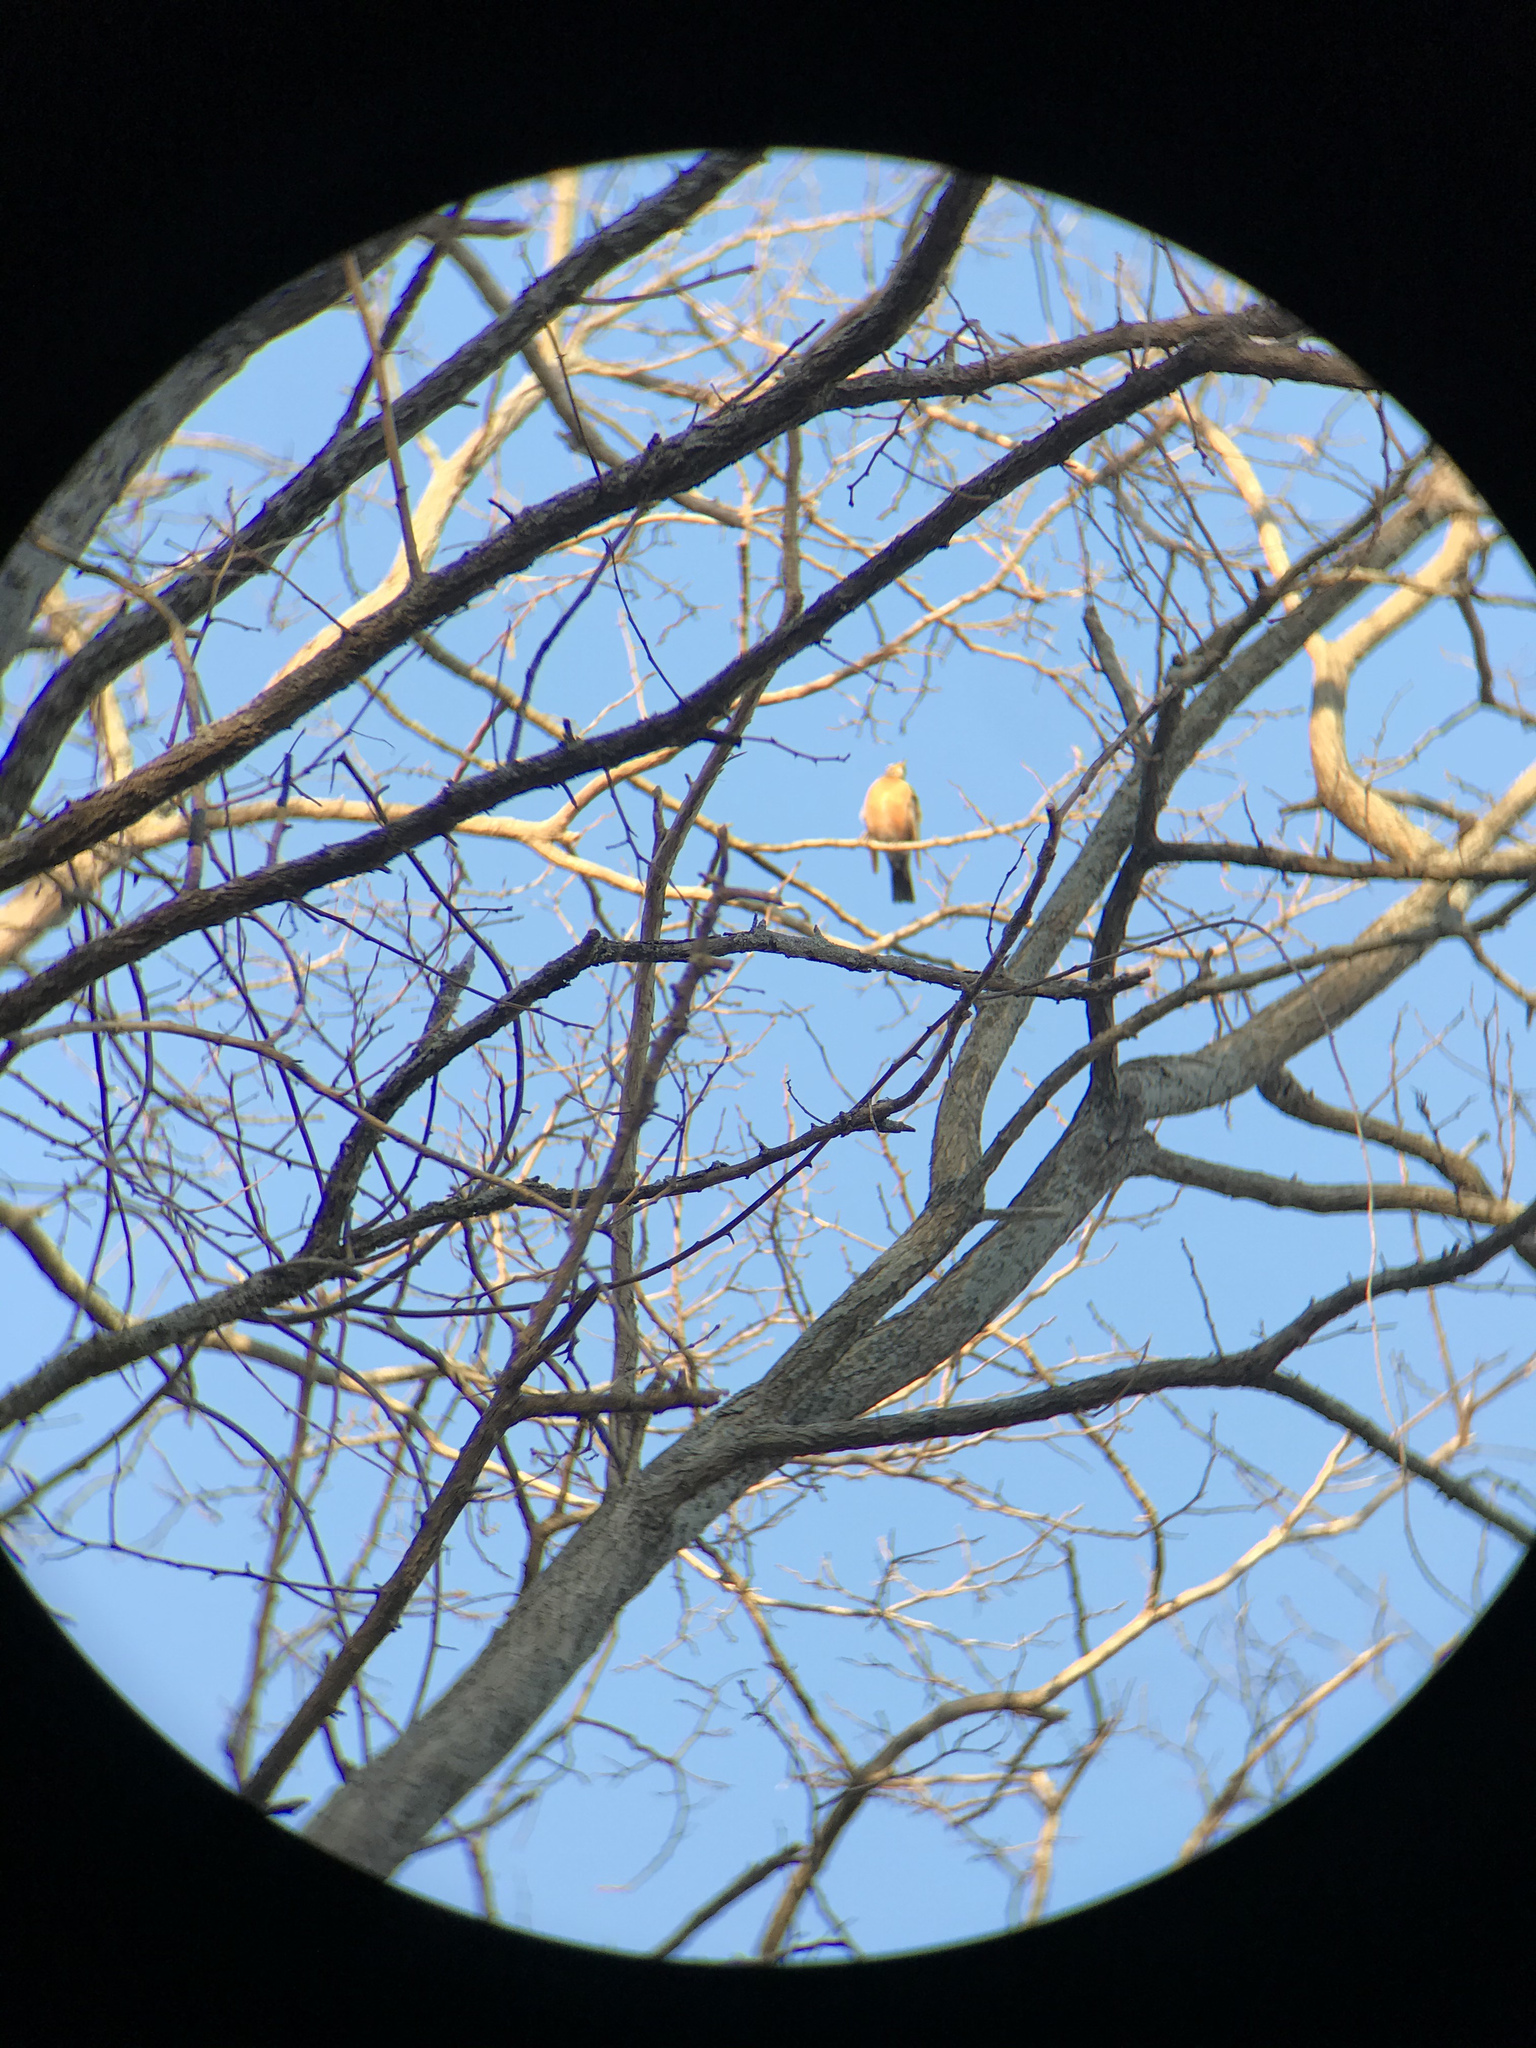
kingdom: Animalia
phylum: Chordata
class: Aves
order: Passeriformes
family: Turdidae
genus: Turdus
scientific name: Turdus migratorius
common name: American robin
